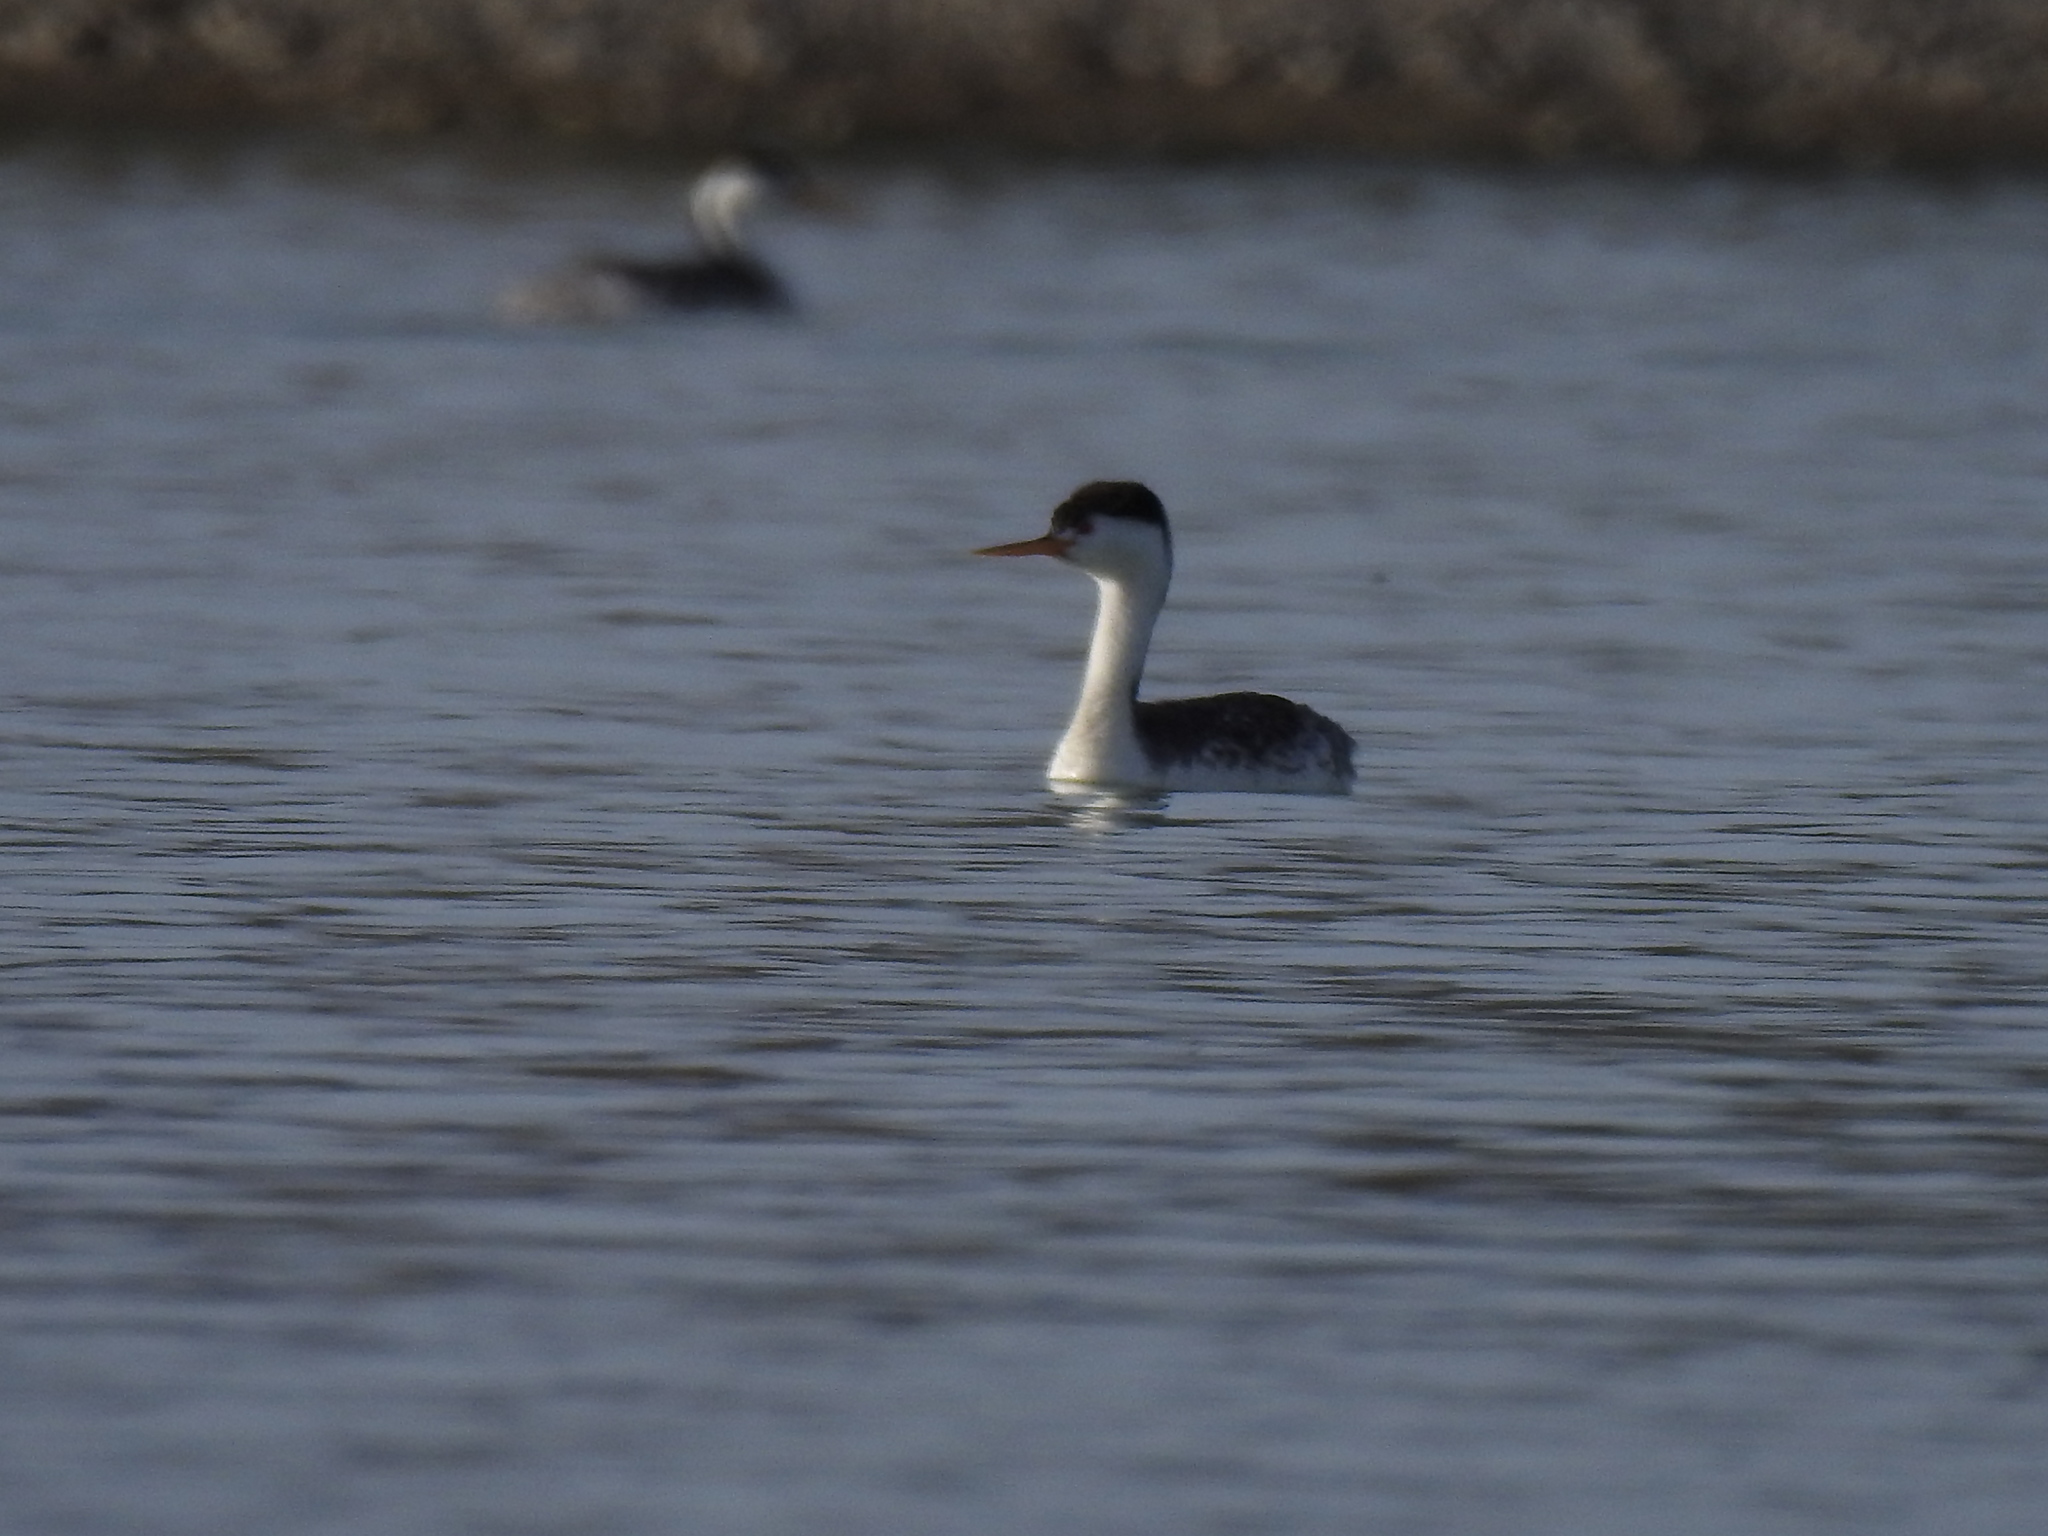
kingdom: Animalia
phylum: Chordata
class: Aves
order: Podicipediformes
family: Podicipedidae
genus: Aechmophorus
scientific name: Aechmophorus clarkii
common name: Clark's grebe
